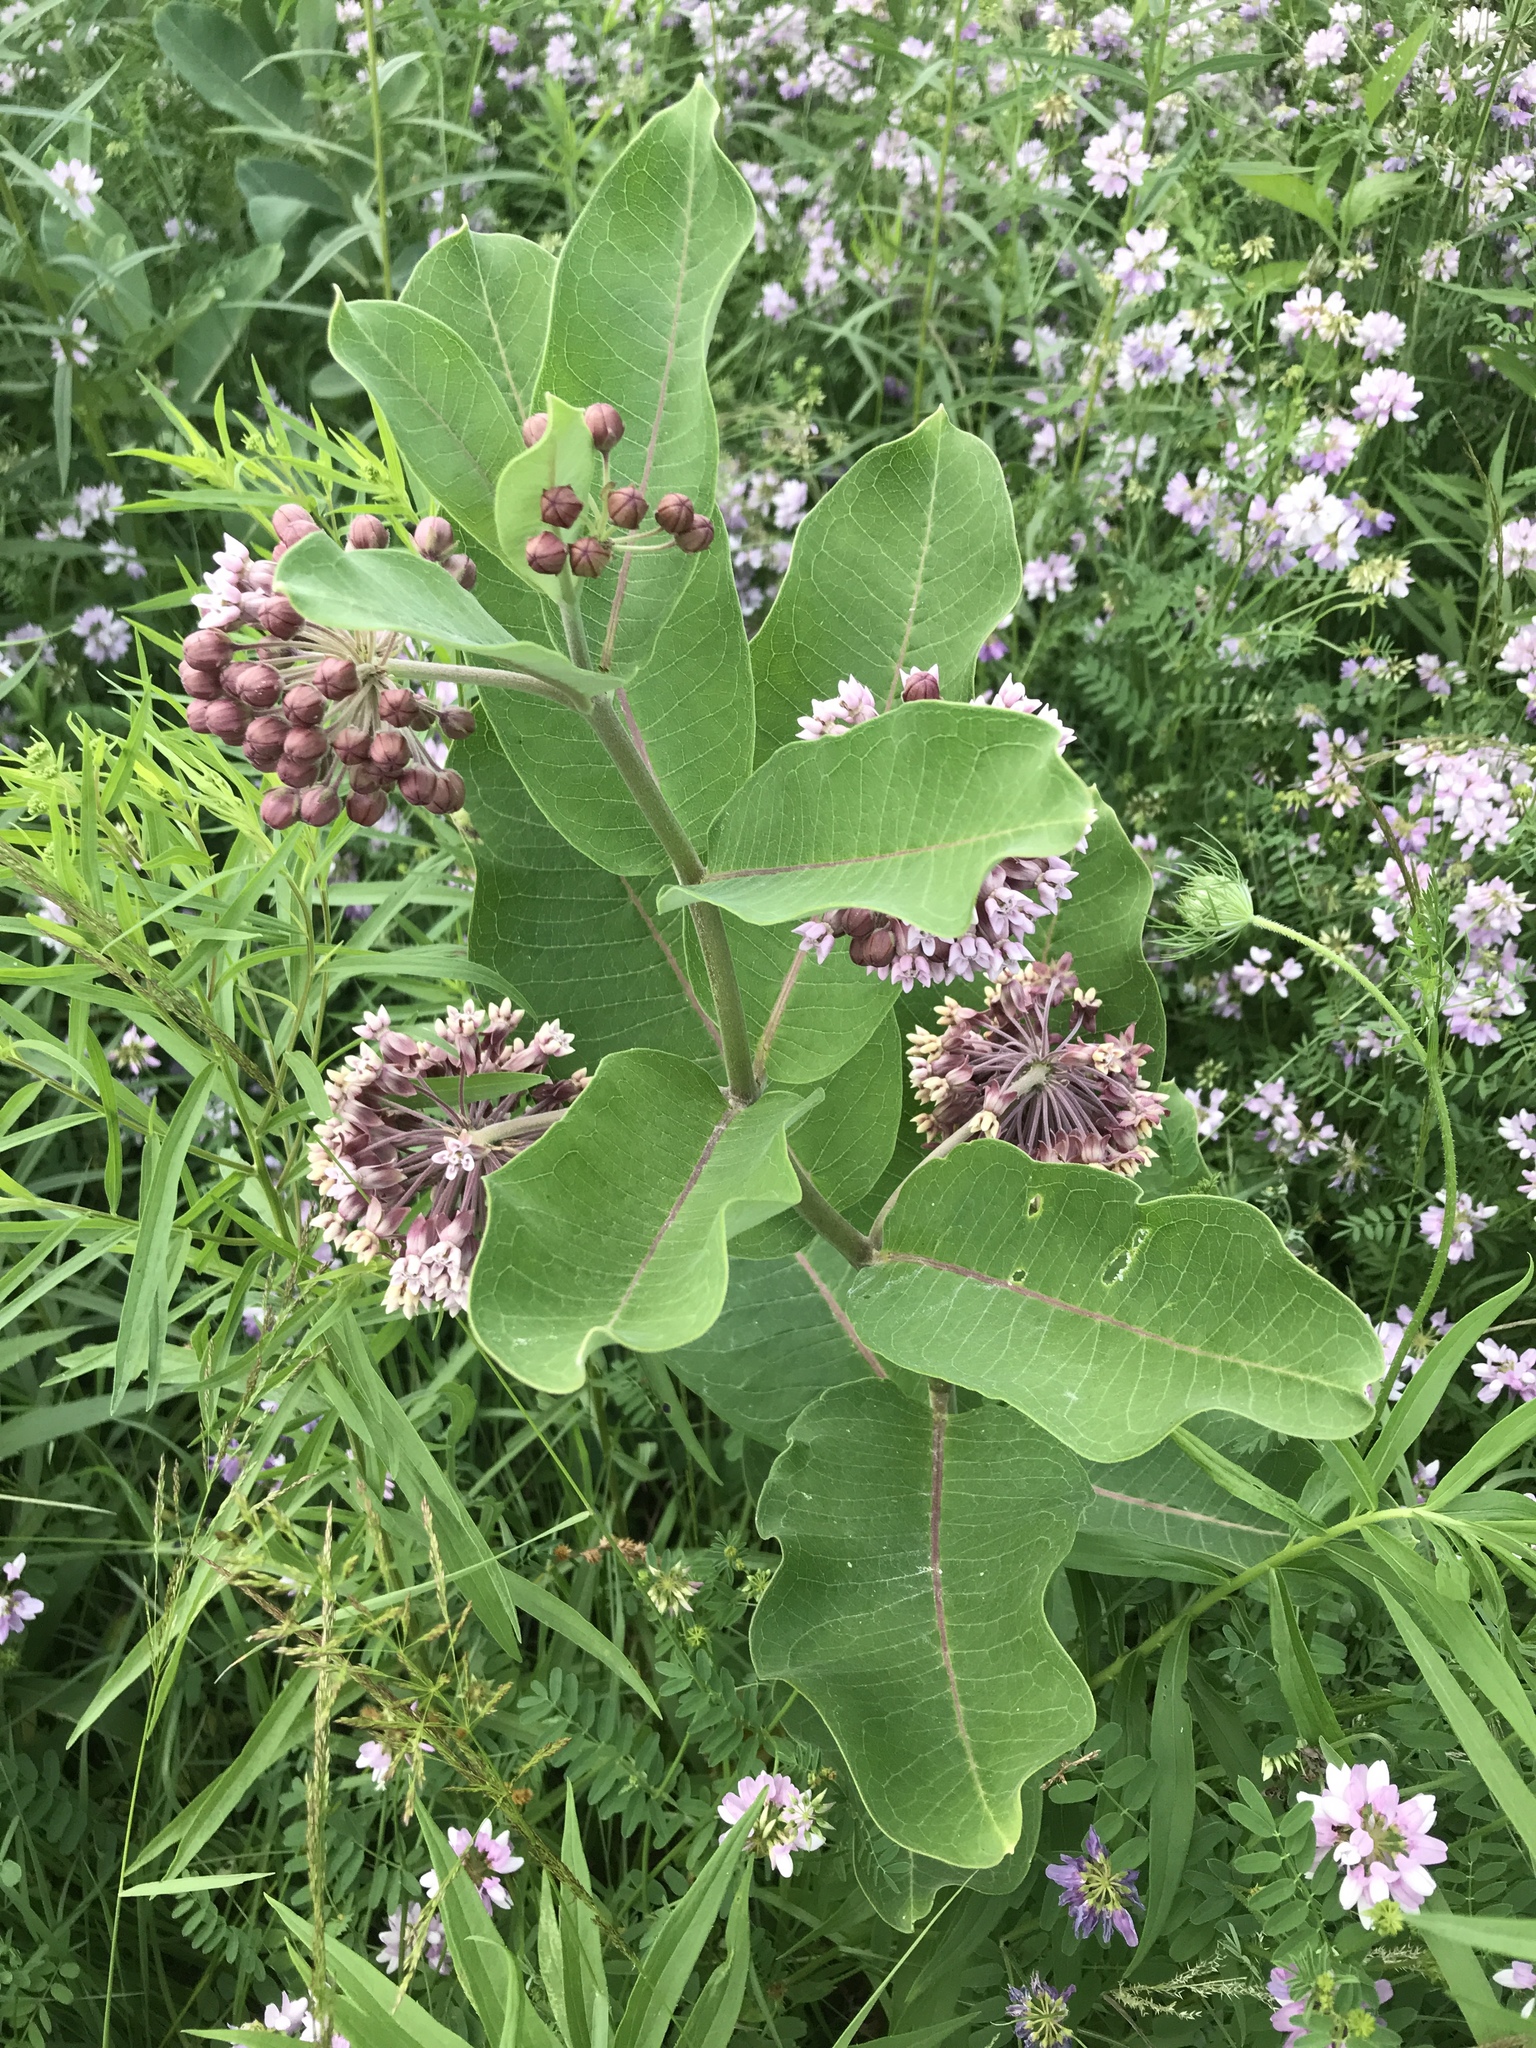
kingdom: Plantae
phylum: Tracheophyta
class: Magnoliopsida
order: Gentianales
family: Apocynaceae
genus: Asclepias
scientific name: Asclepias syriaca
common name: Common milkweed
